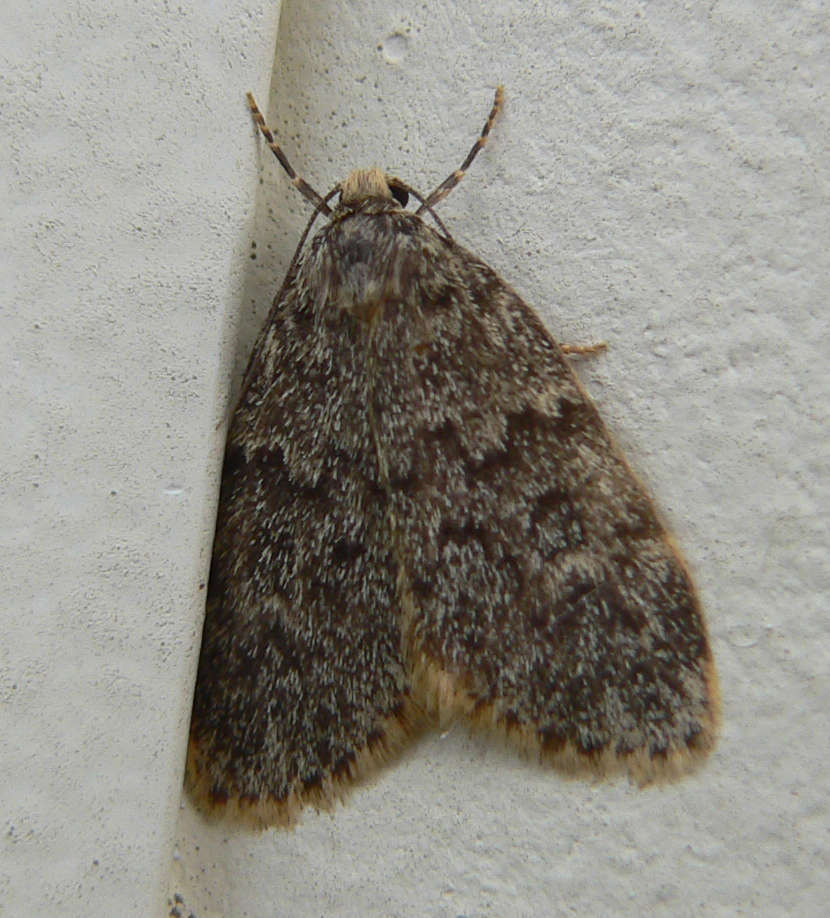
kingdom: Animalia
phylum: Arthropoda
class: Insecta
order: Lepidoptera
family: Erebidae
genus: Halone
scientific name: Halone consolatrix
